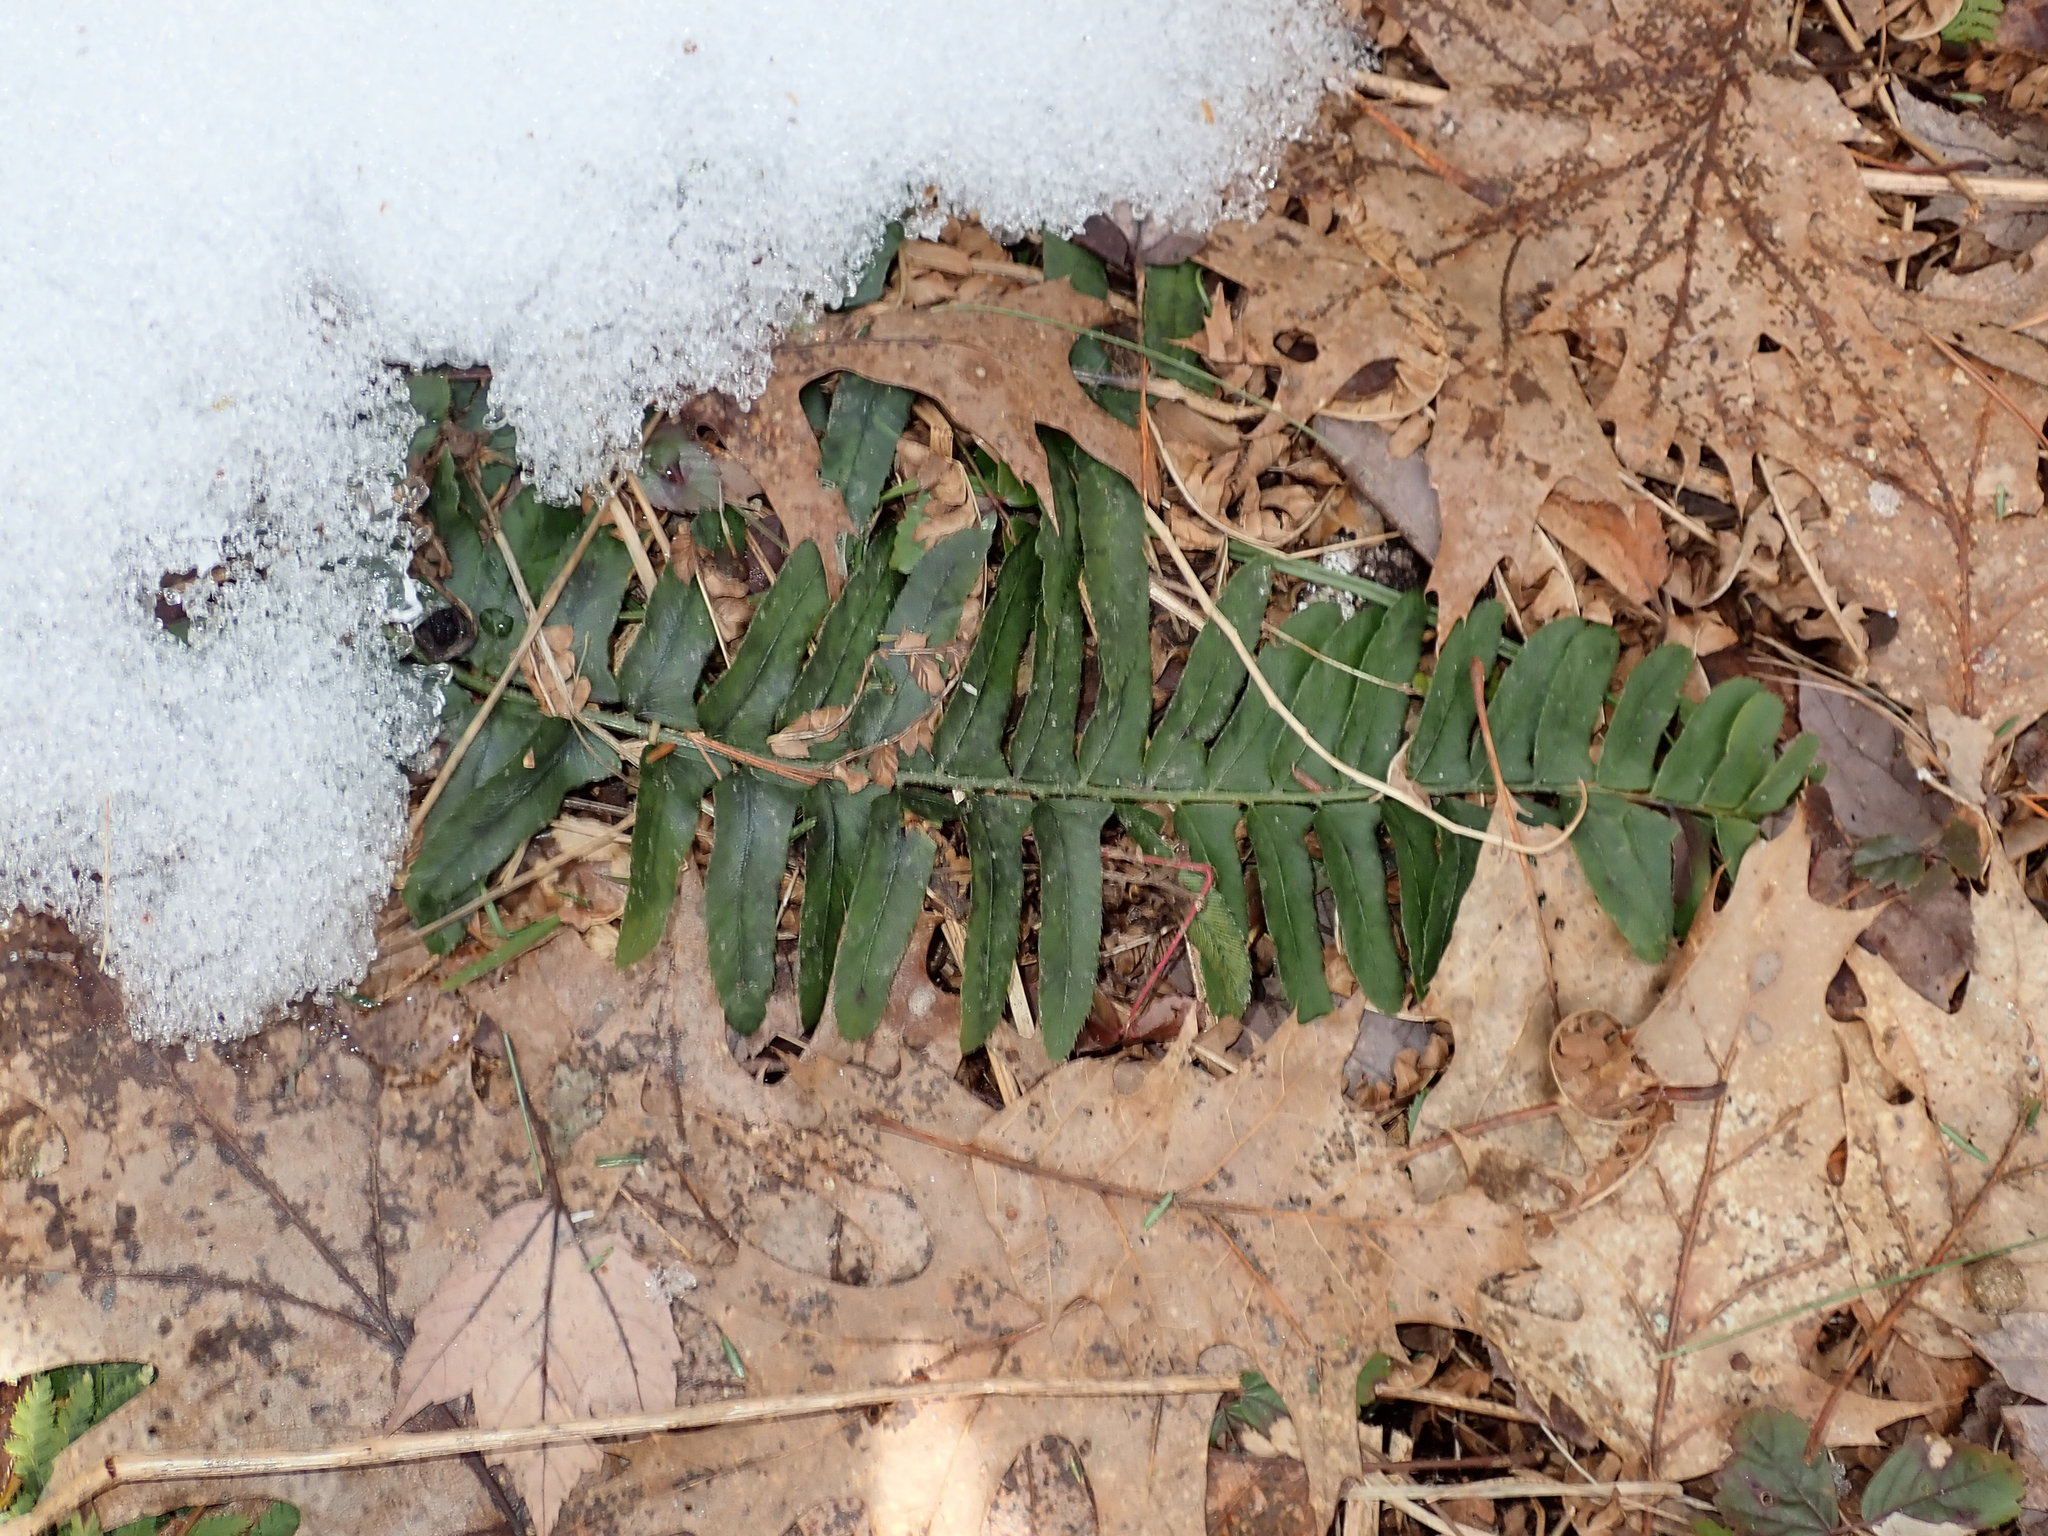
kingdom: Plantae
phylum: Tracheophyta
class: Polypodiopsida
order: Polypodiales
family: Dryopteridaceae
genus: Polystichum
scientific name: Polystichum acrostichoides
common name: Christmas fern
